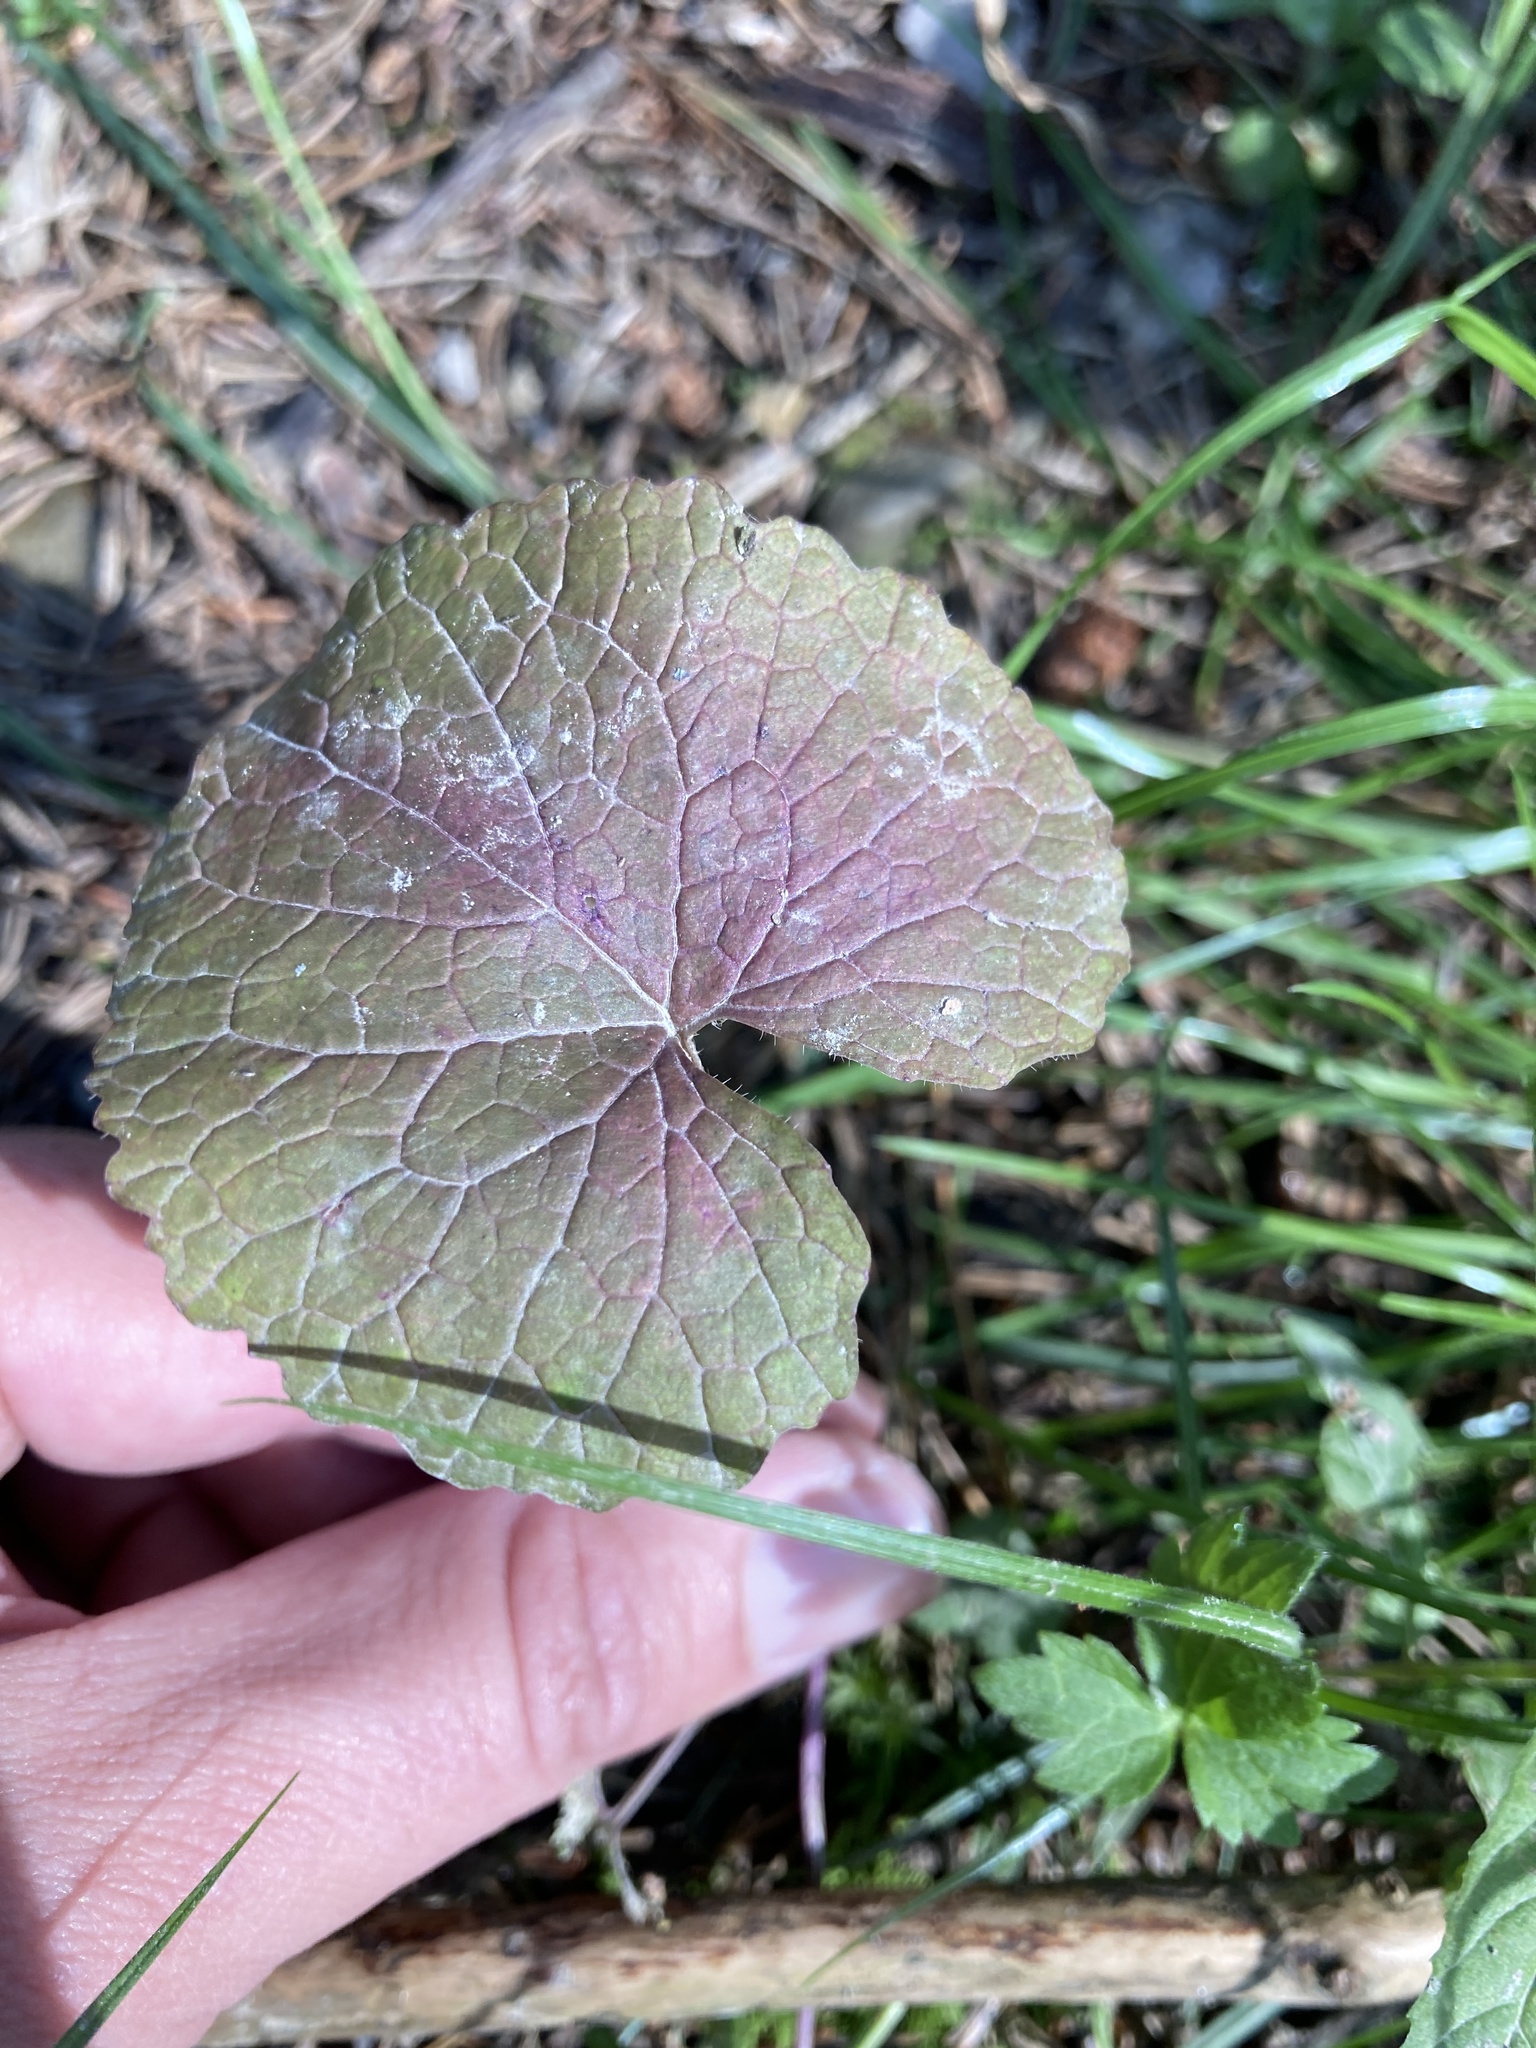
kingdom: Plantae
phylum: Tracheophyta
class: Magnoliopsida
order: Brassicales
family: Brassicaceae
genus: Alliaria
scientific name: Alliaria petiolata
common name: Garlic mustard
